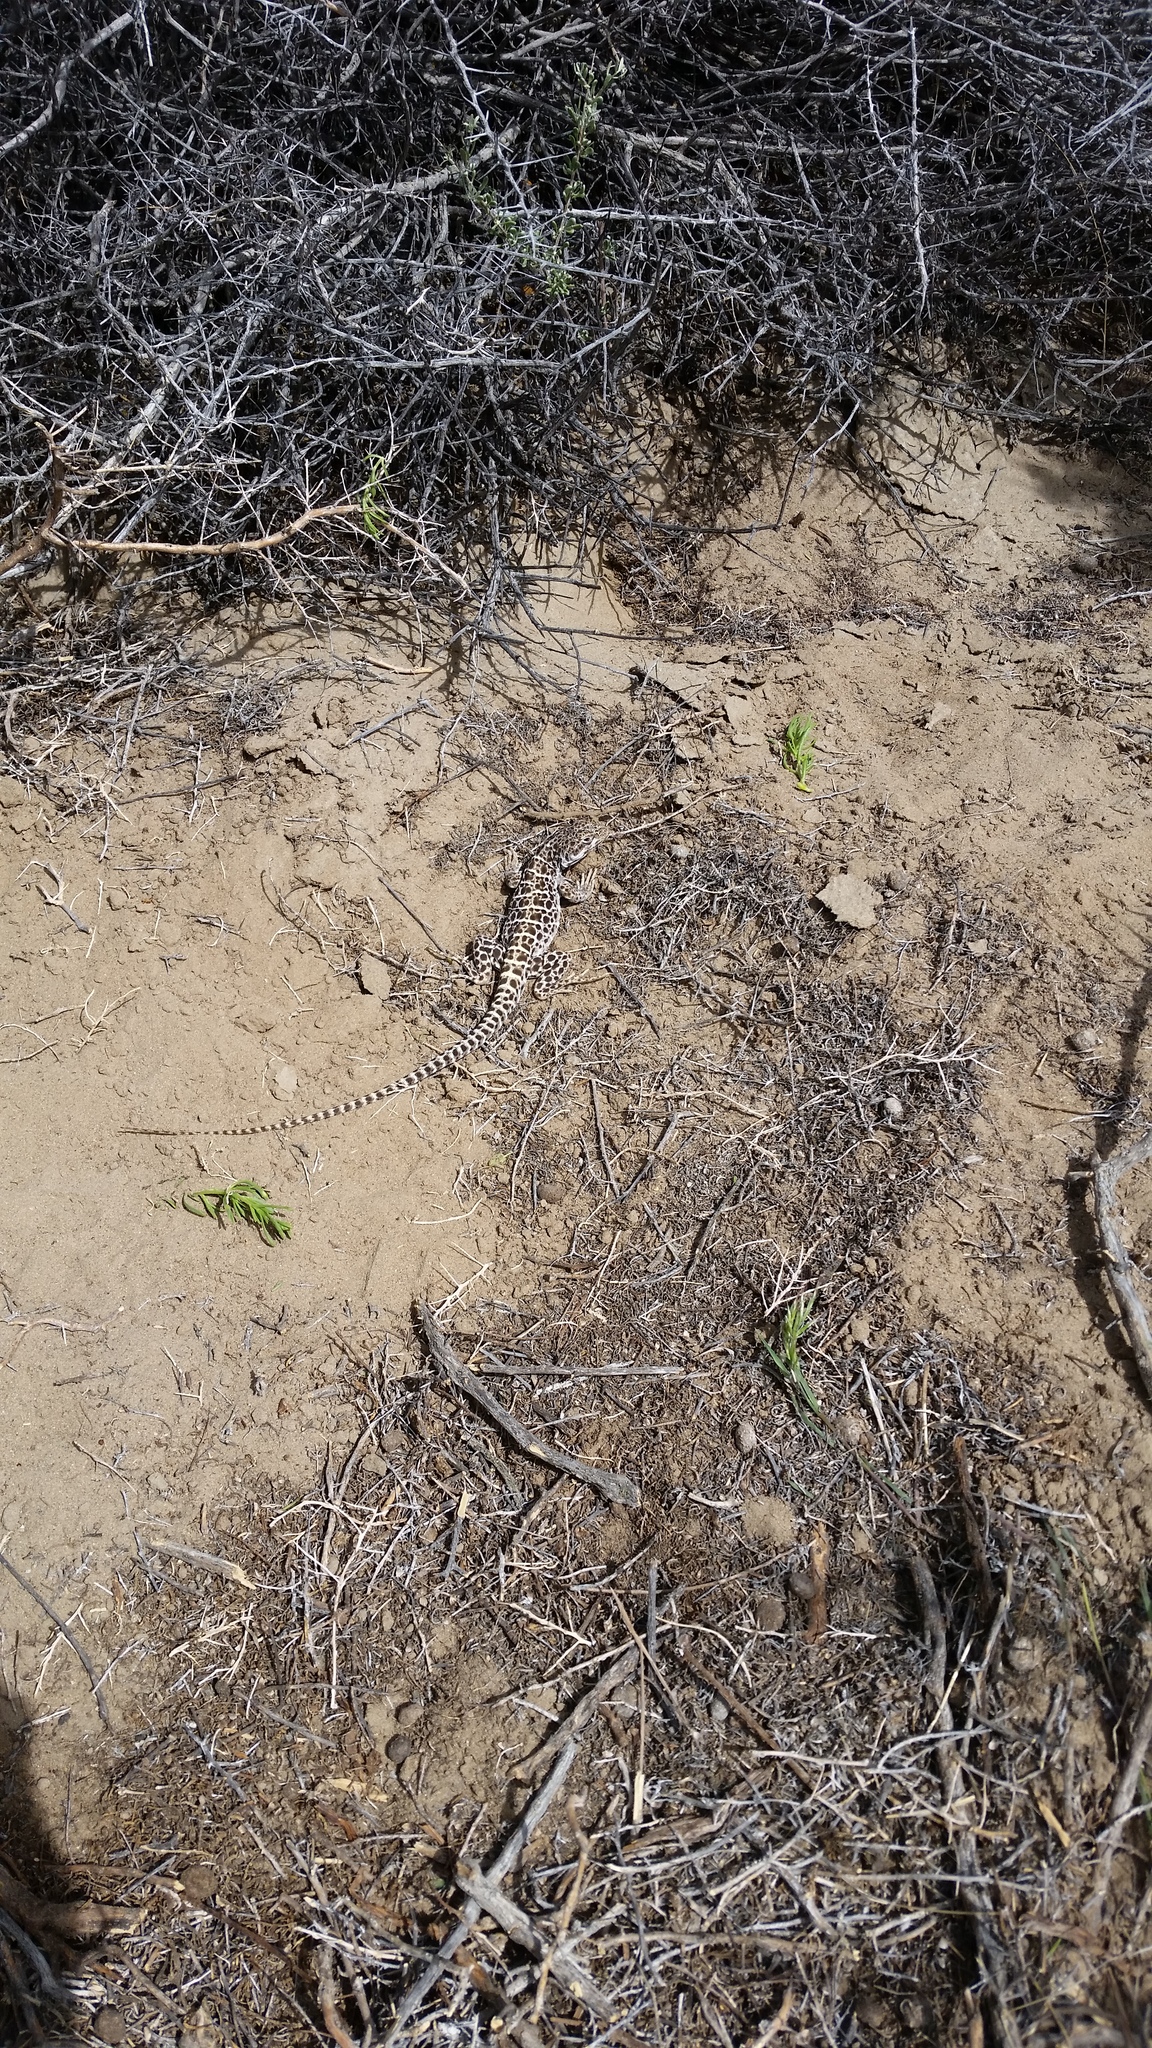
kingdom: Animalia
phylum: Chordata
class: Squamata
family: Crotaphytidae
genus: Gambelia
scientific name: Gambelia wislizenii
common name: Longnose leopard lizard
